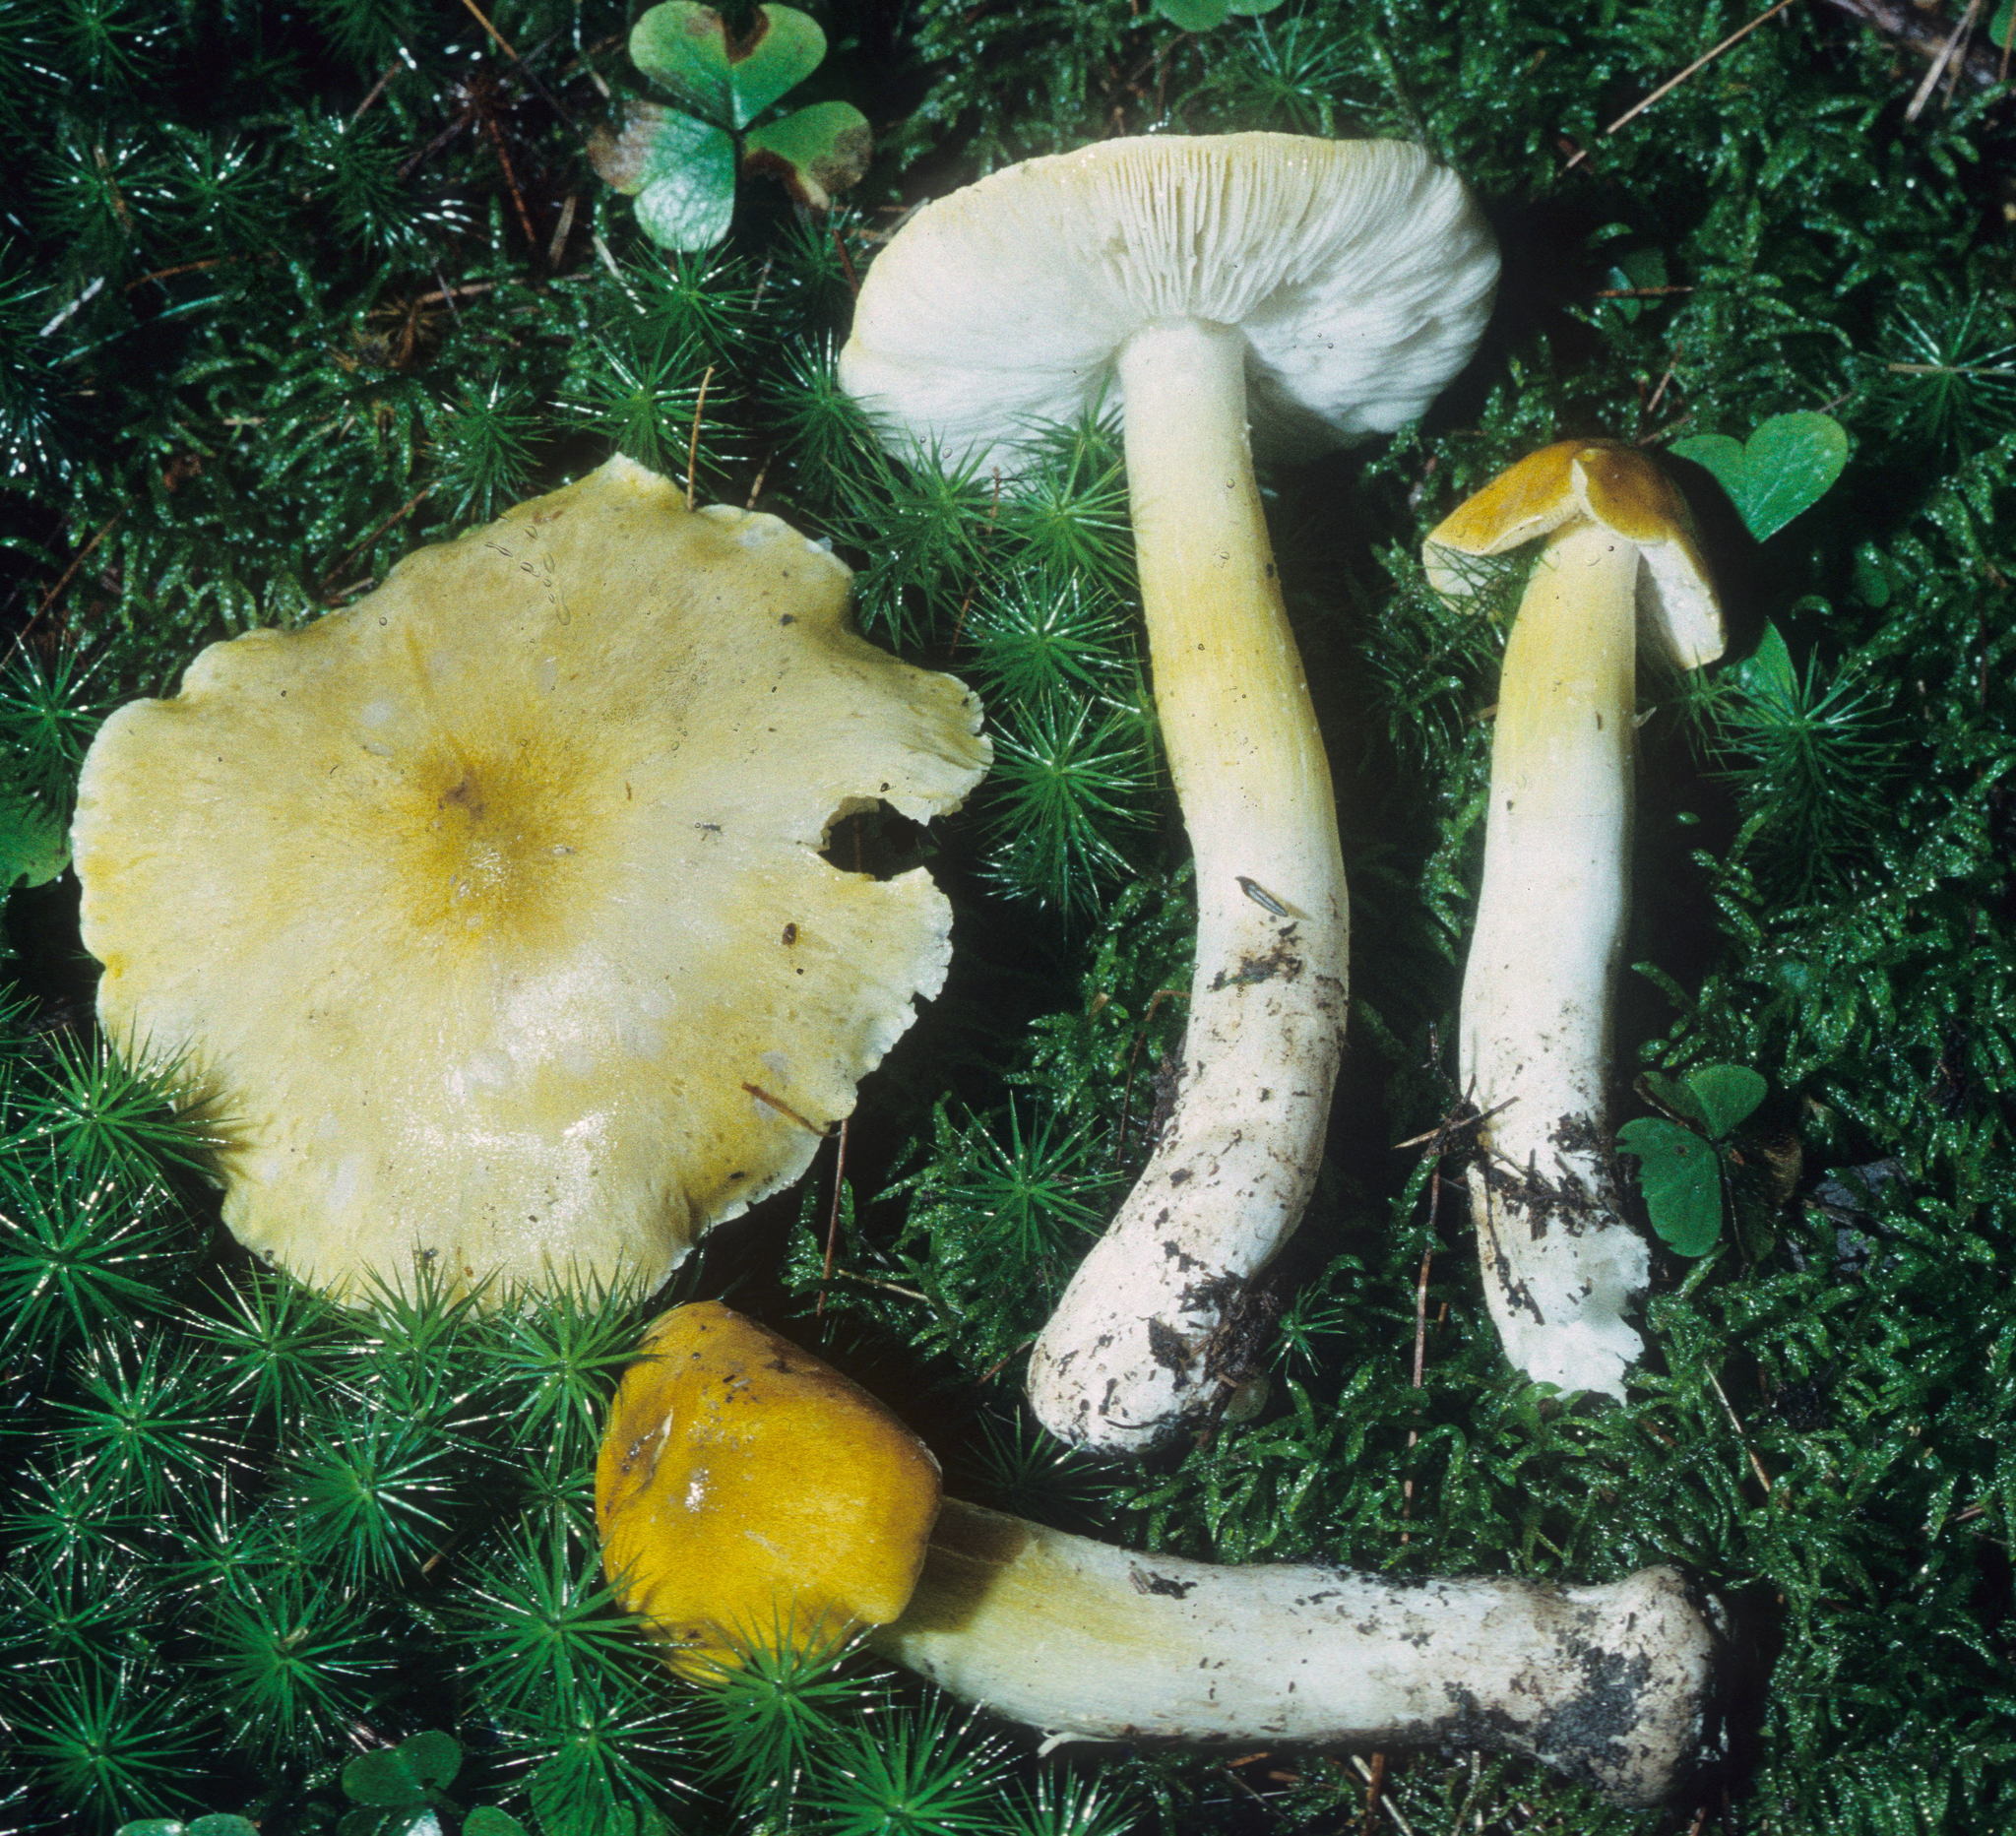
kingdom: Fungi
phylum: Basidiomycota
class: Agaricomycetes
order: Agaricales
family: Tricholomataceae
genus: Tricholoma
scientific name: Tricholoma subluteum
